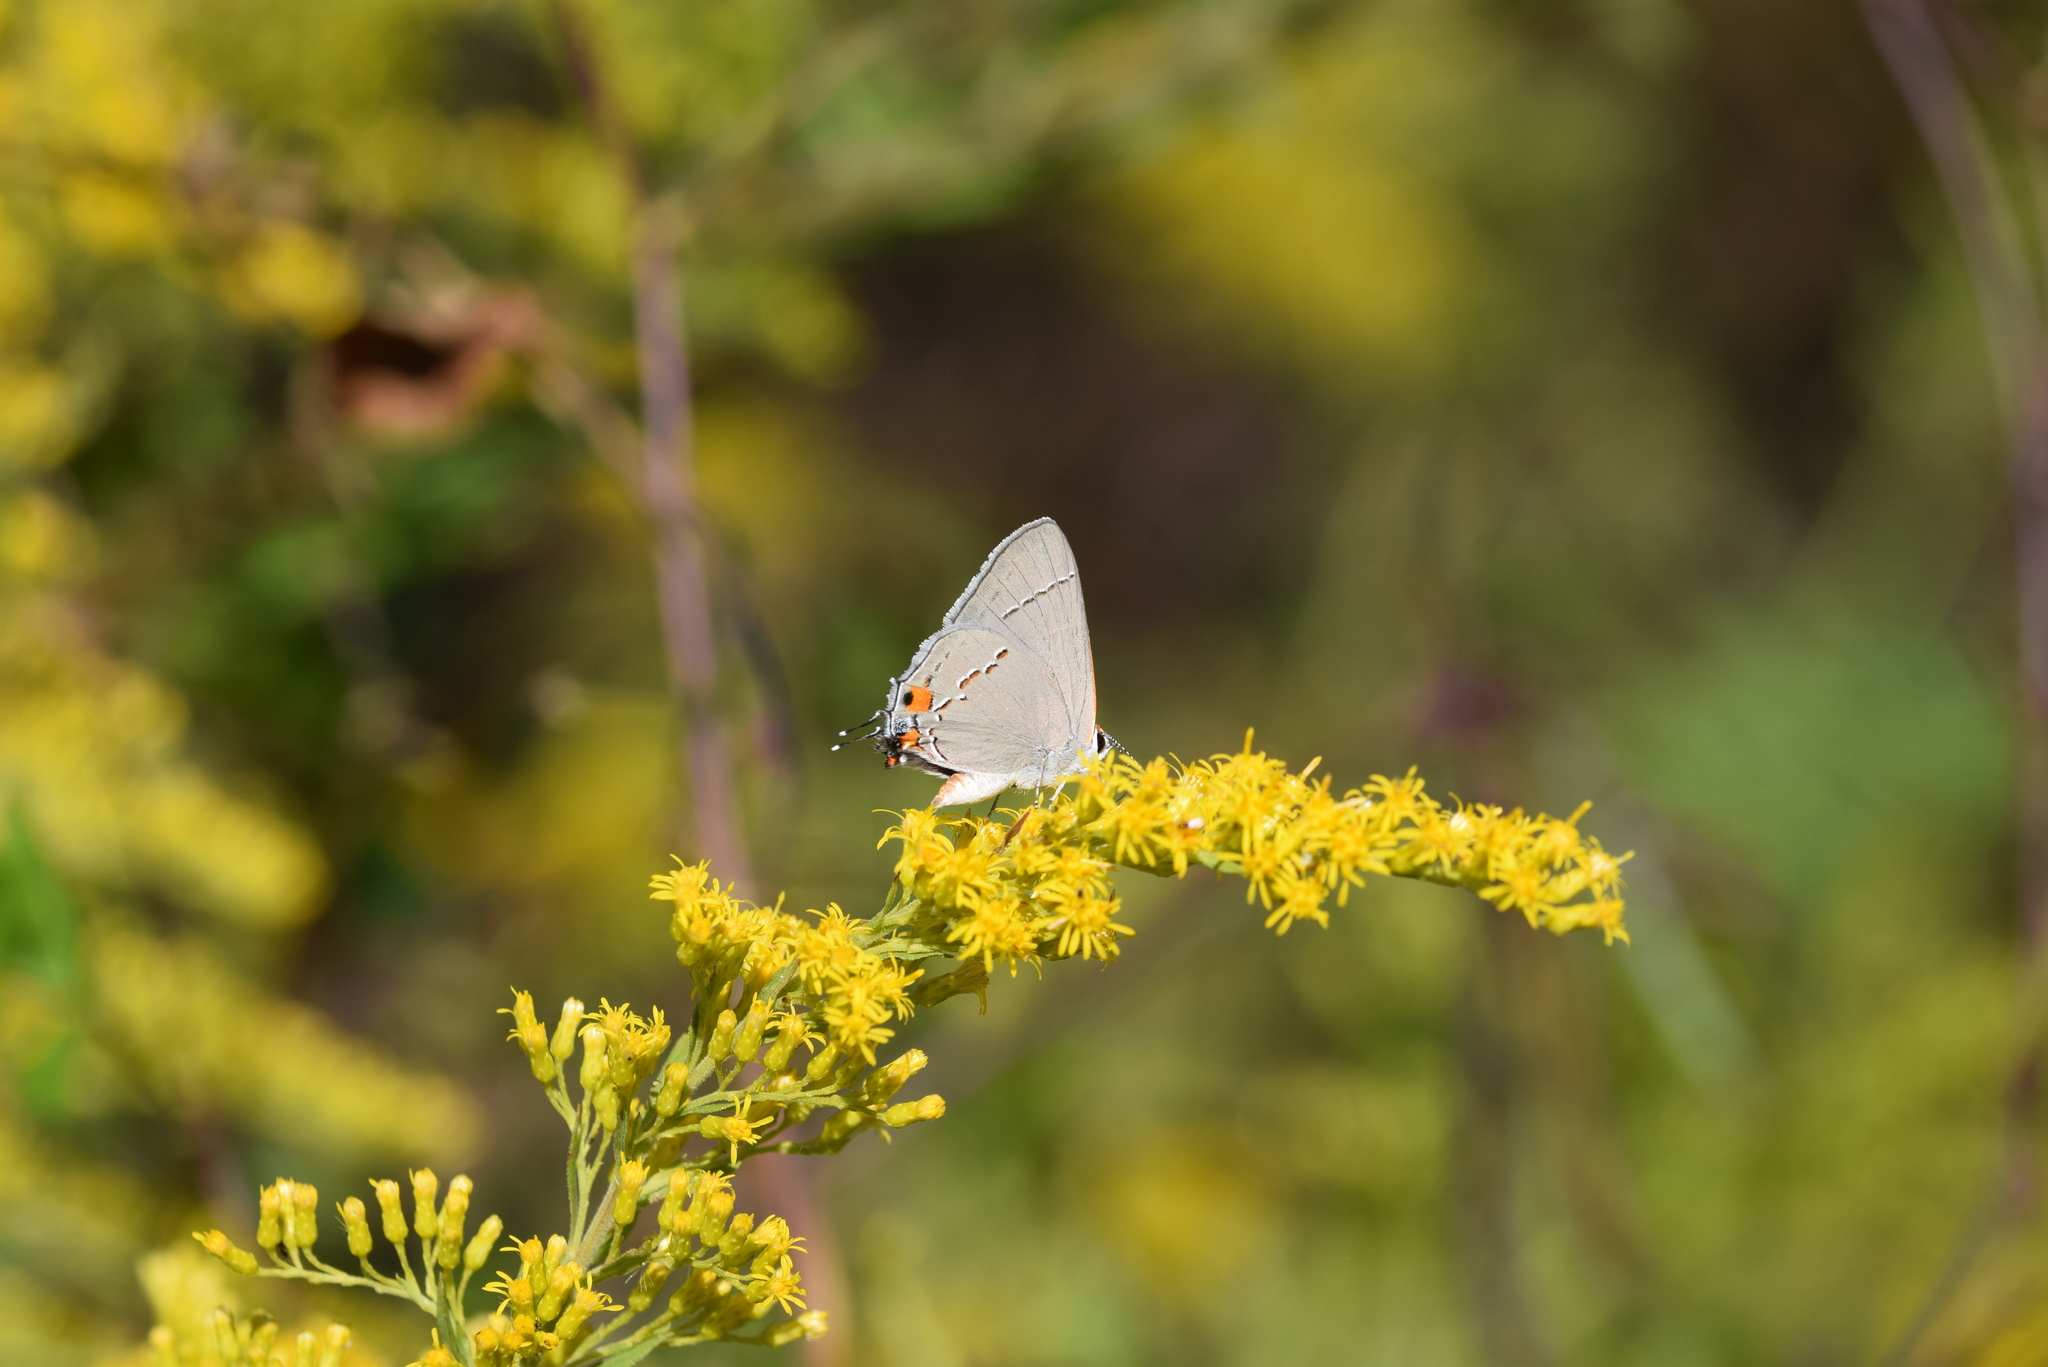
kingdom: Animalia
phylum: Arthropoda
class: Insecta
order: Lepidoptera
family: Lycaenidae
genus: Strymon
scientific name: Strymon melinus
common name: Gray hairstreak
